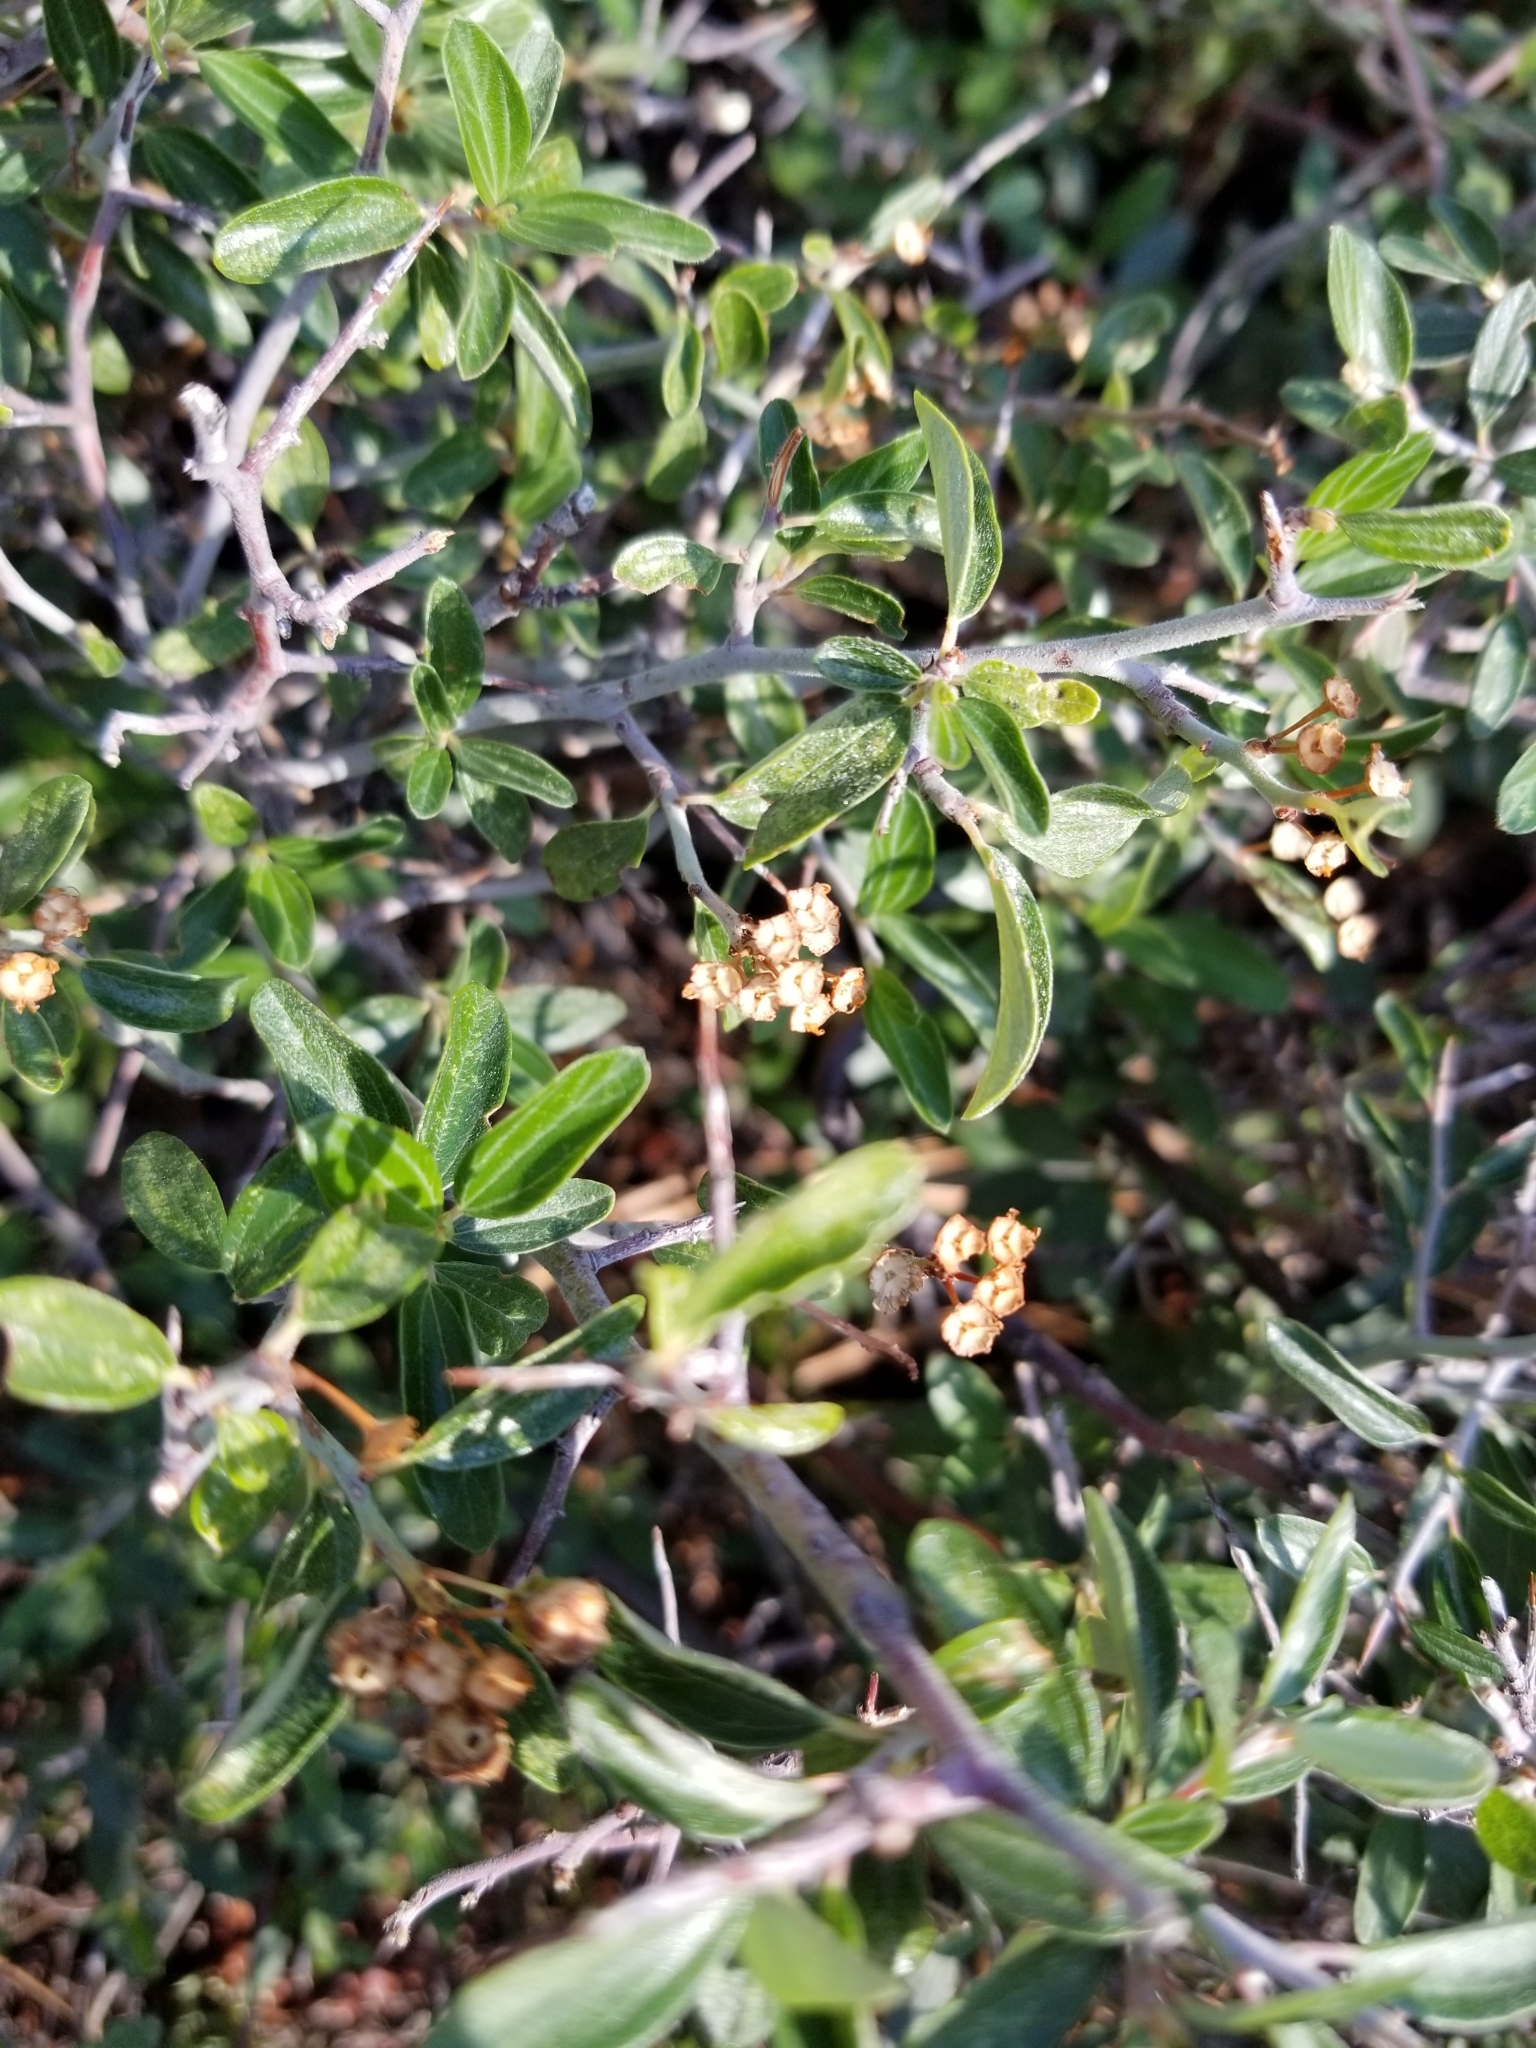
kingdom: Plantae
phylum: Tracheophyta
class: Magnoliopsida
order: Rosales
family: Rhamnaceae
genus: Ceanothus
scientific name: Ceanothus fendleri
